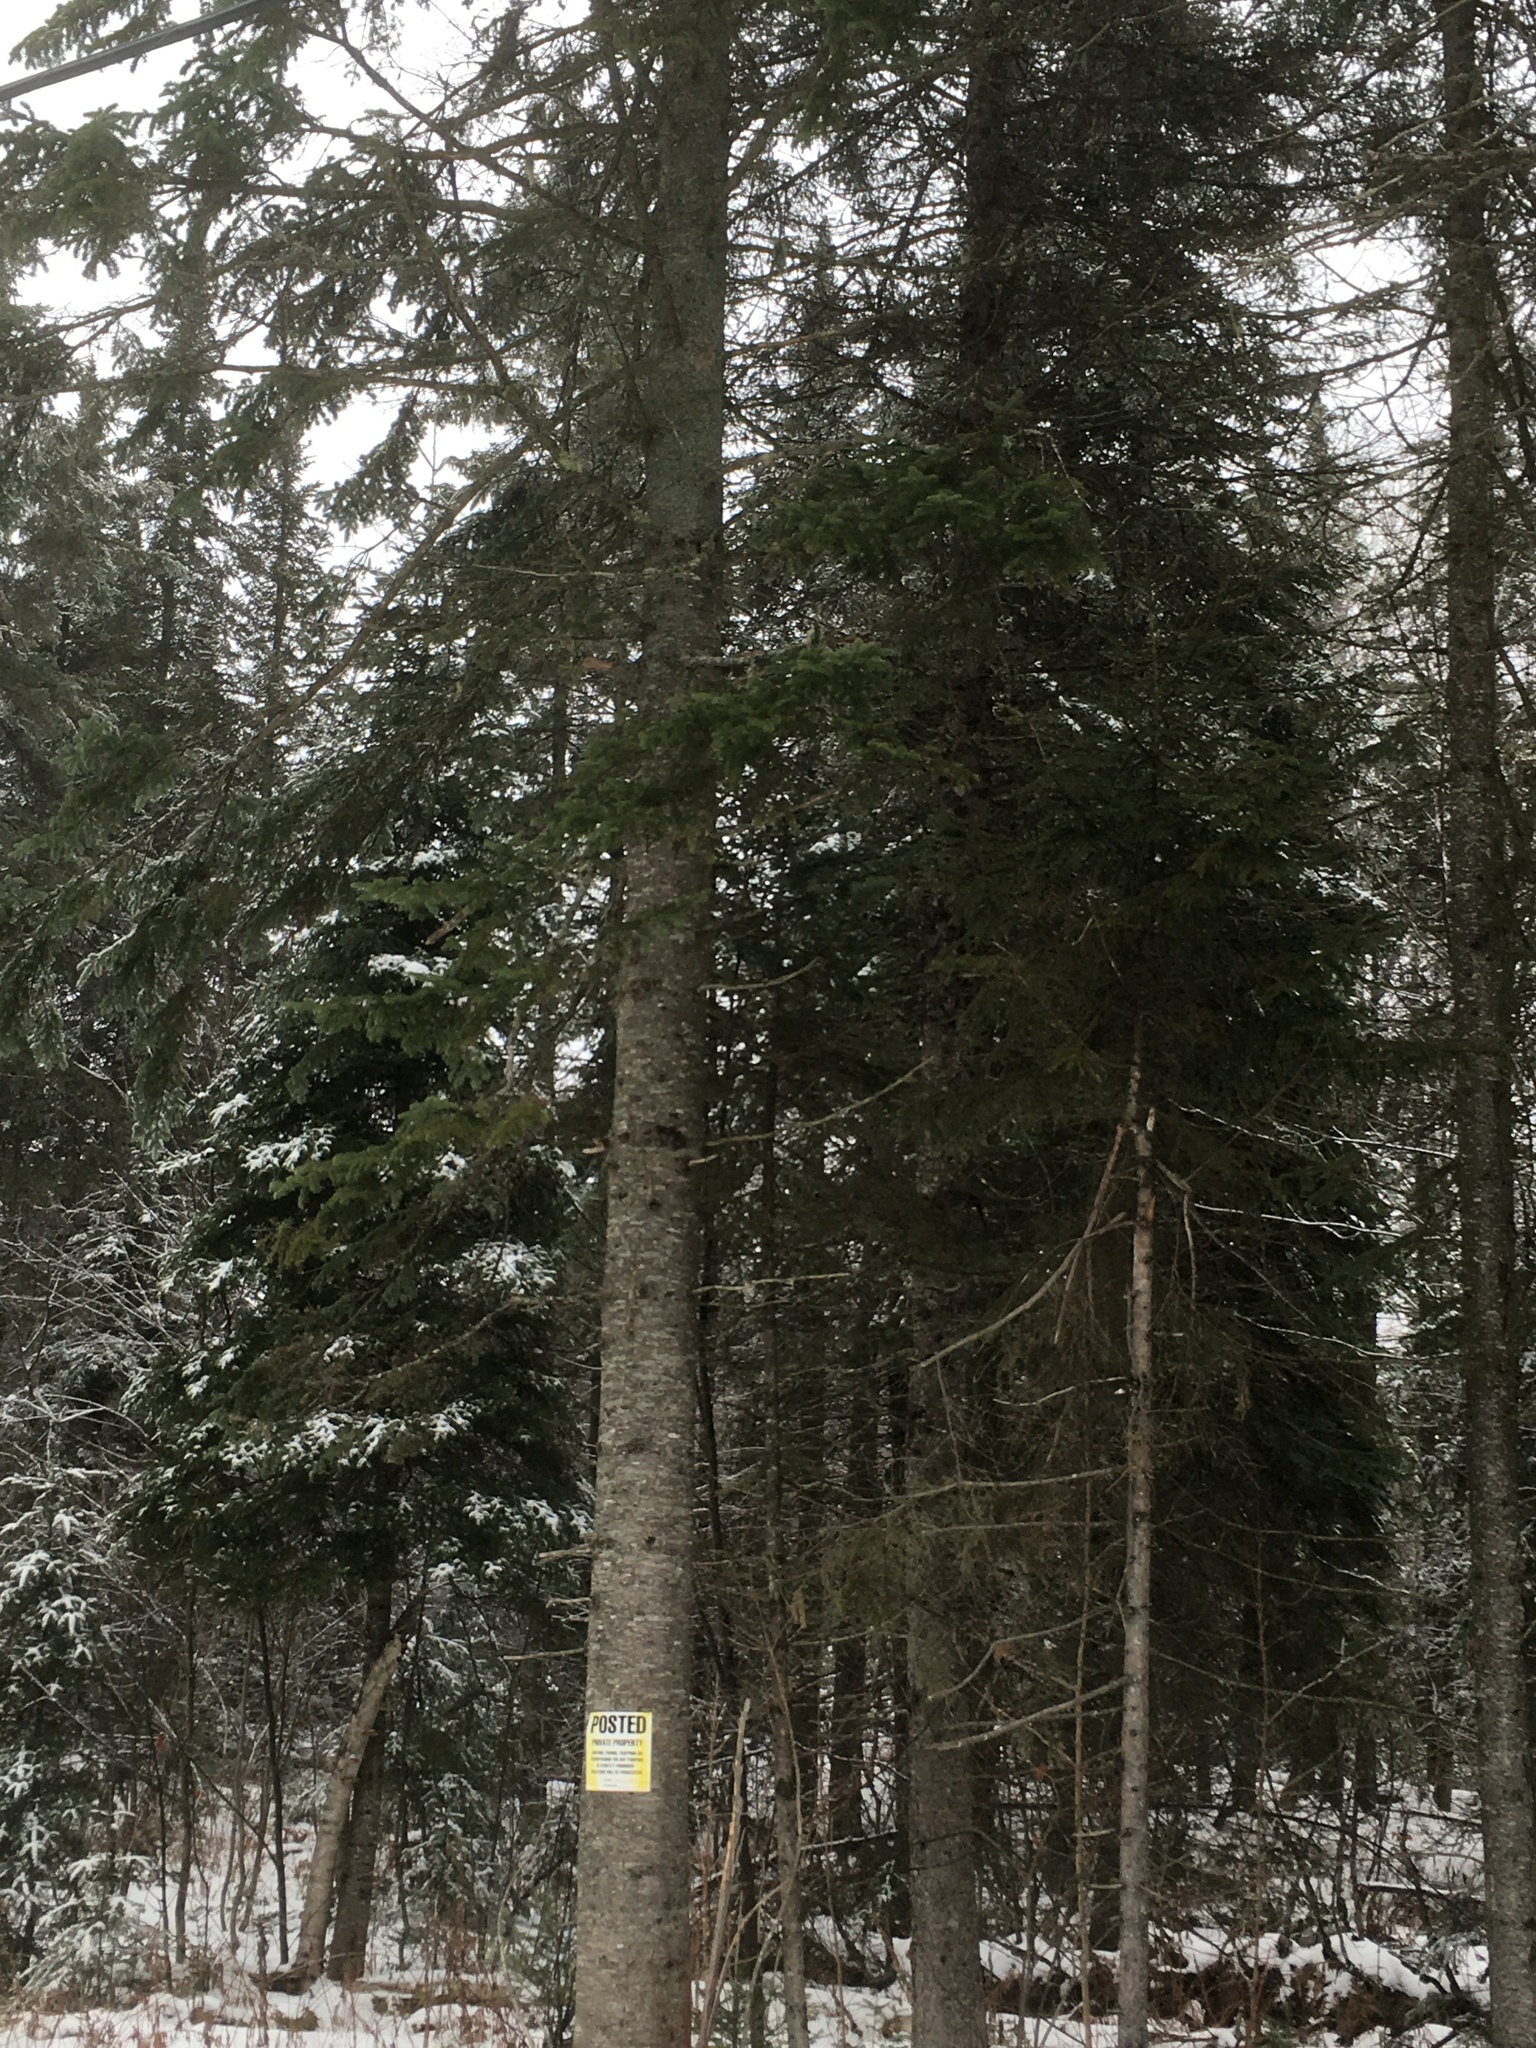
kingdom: Plantae
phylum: Tracheophyta
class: Pinopsida
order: Pinales
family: Pinaceae
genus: Abies
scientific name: Abies balsamea
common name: Balsam fir
